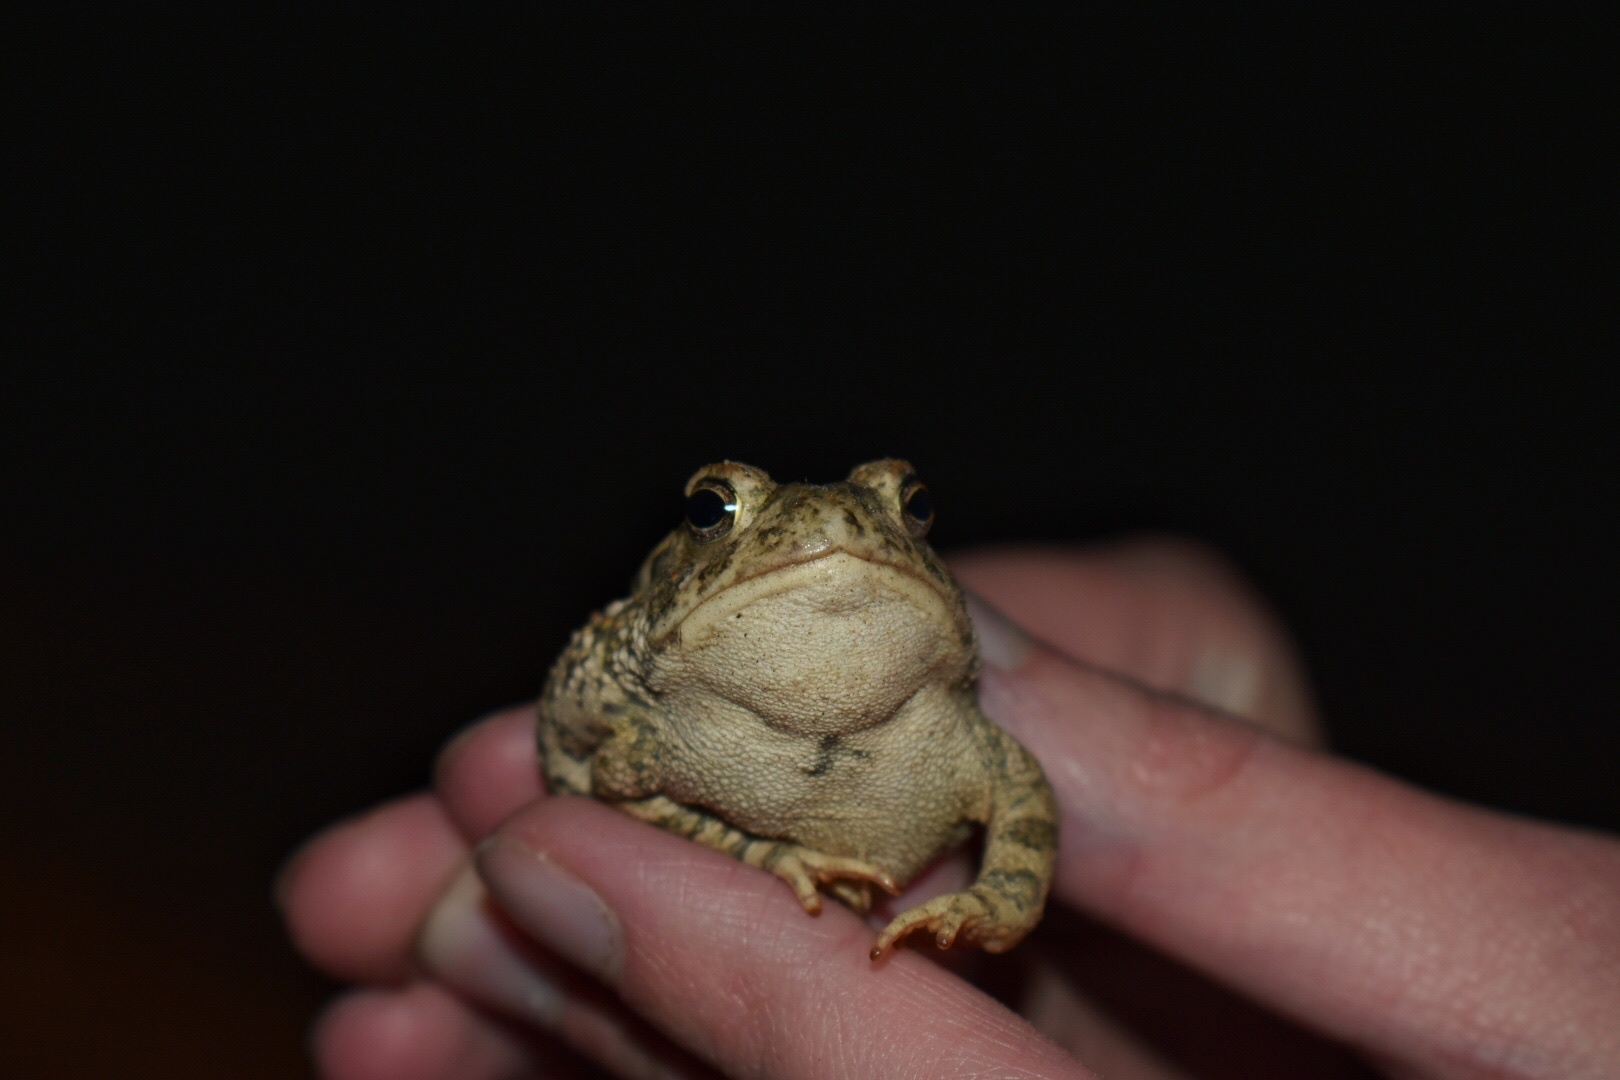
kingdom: Animalia
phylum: Chordata
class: Amphibia
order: Anura
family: Bufonidae
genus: Anaxyrus
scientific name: Anaxyrus woodhousii
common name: Woodhouse's toad
